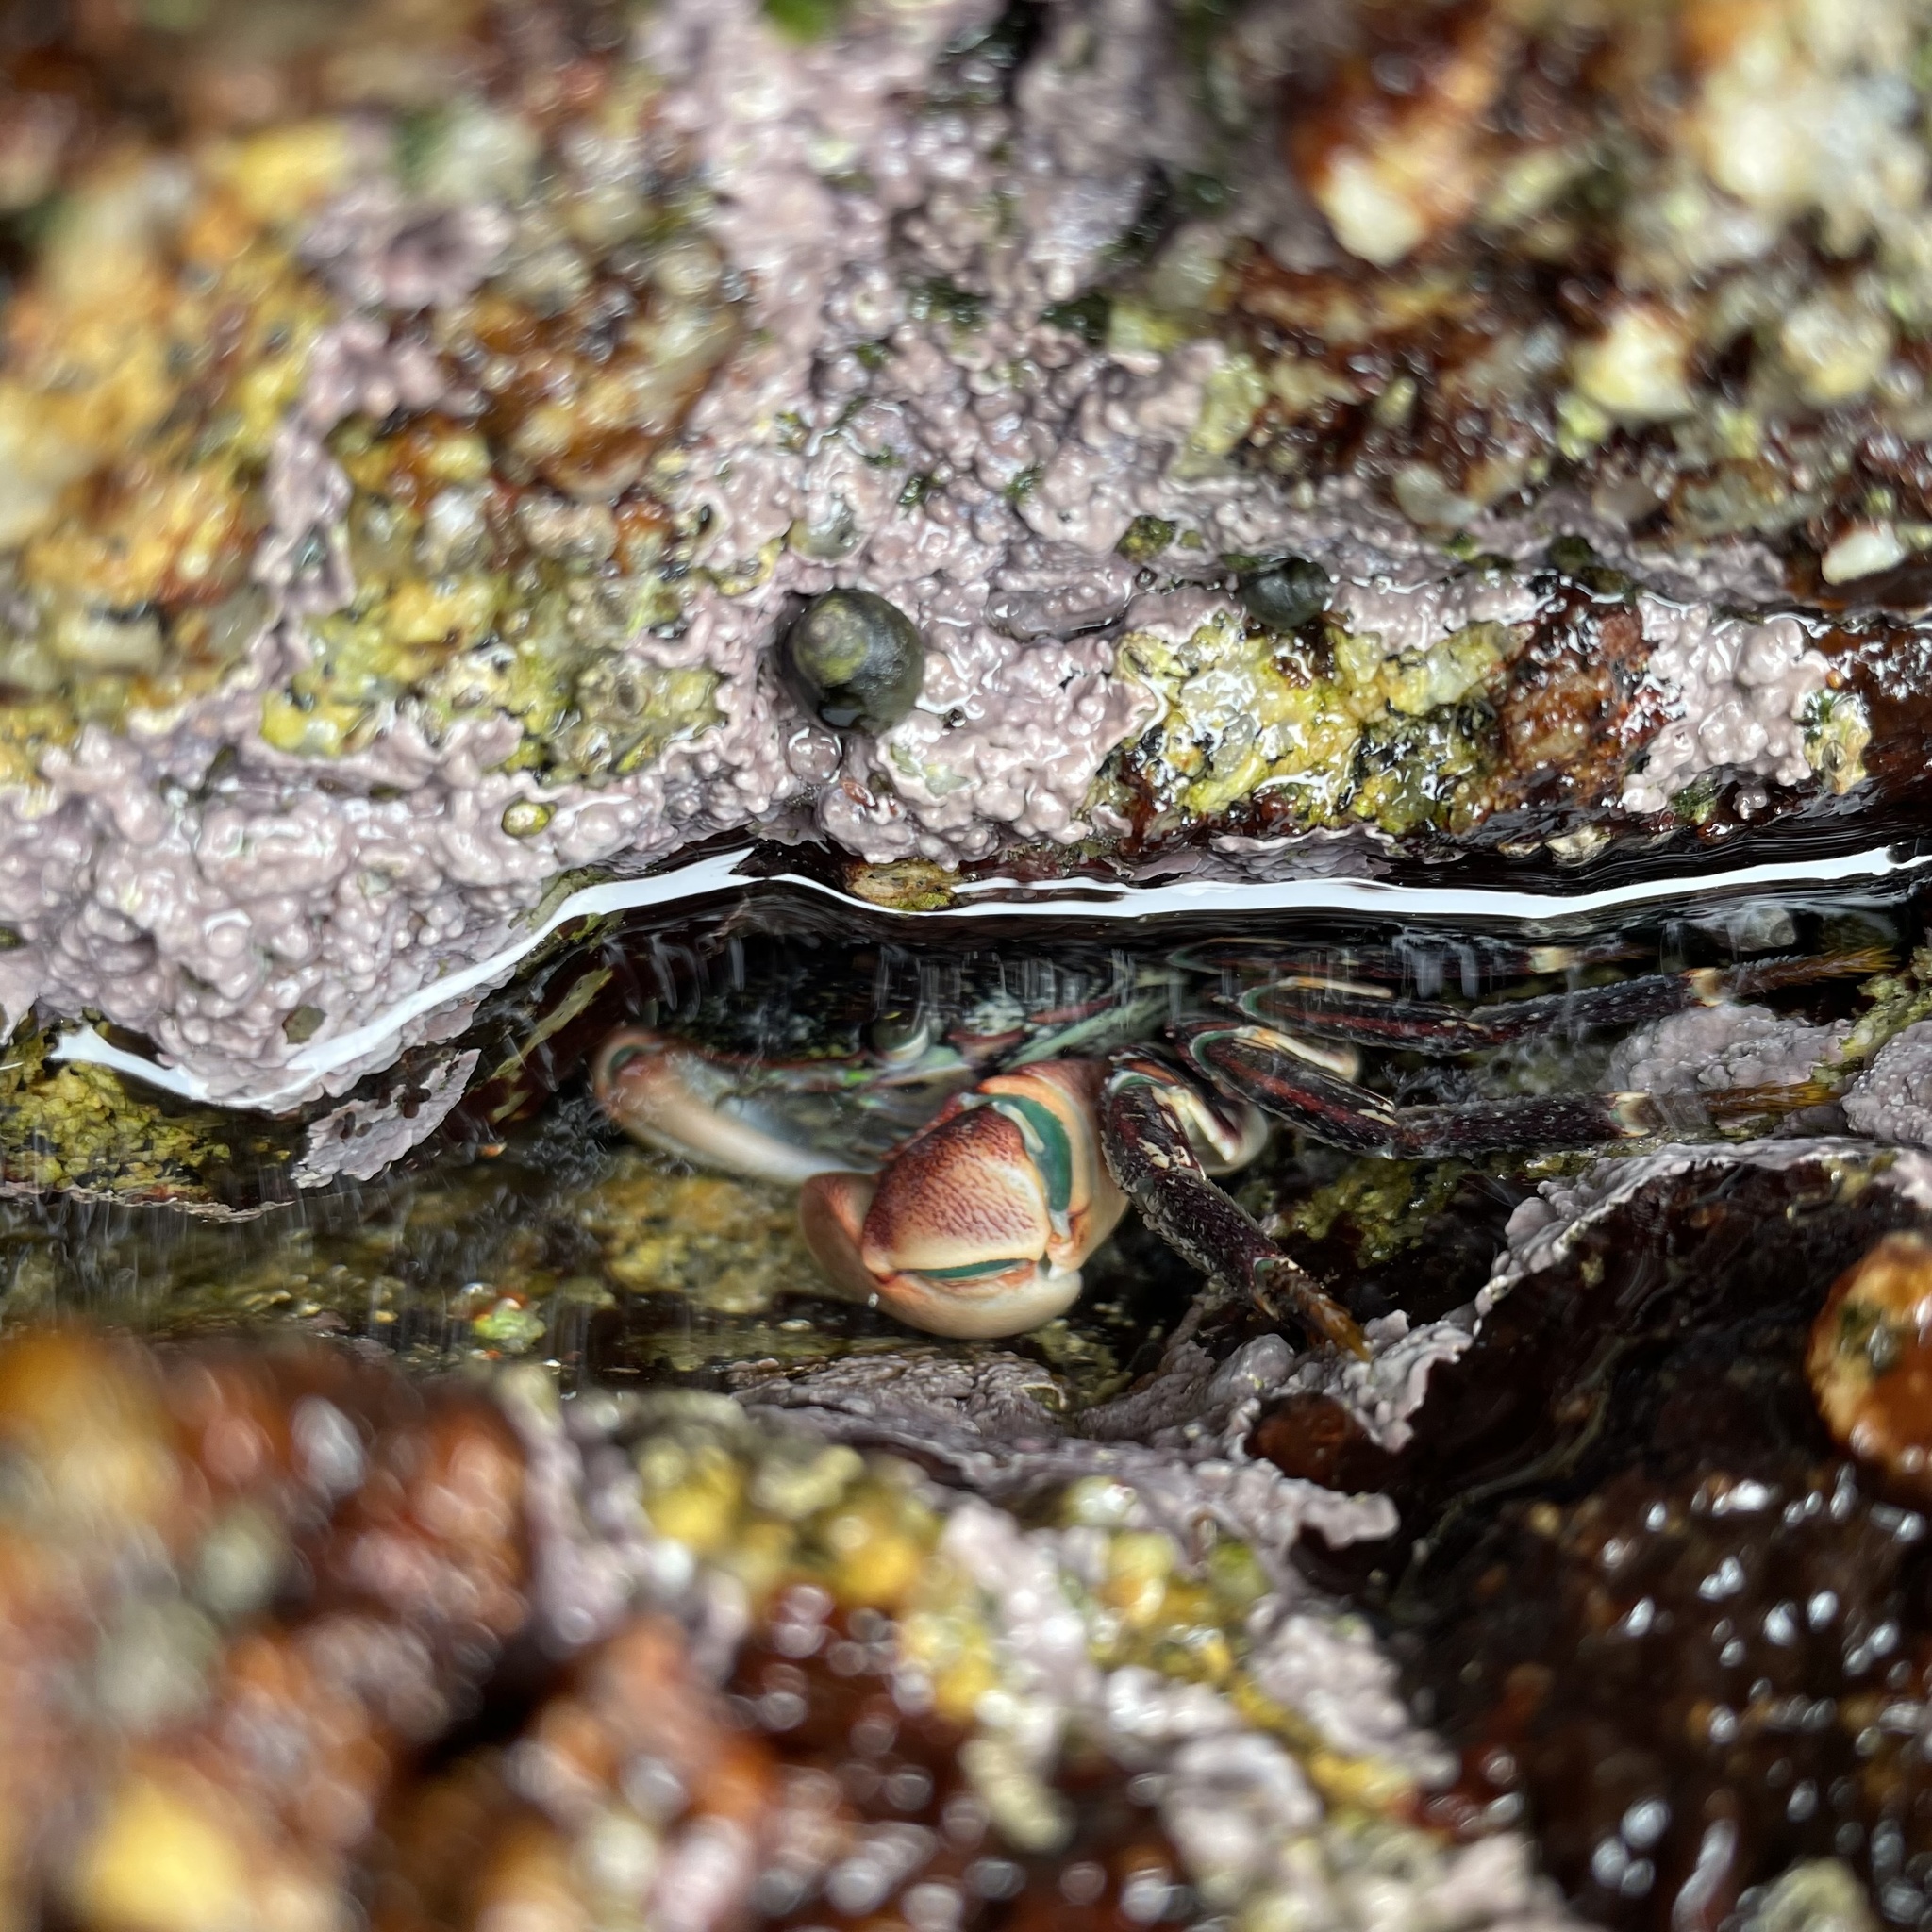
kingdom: Animalia
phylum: Arthropoda
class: Malacostraca
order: Decapoda
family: Grapsidae
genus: Pachygrapsus
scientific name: Pachygrapsus crassipes
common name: Striped shore crab
